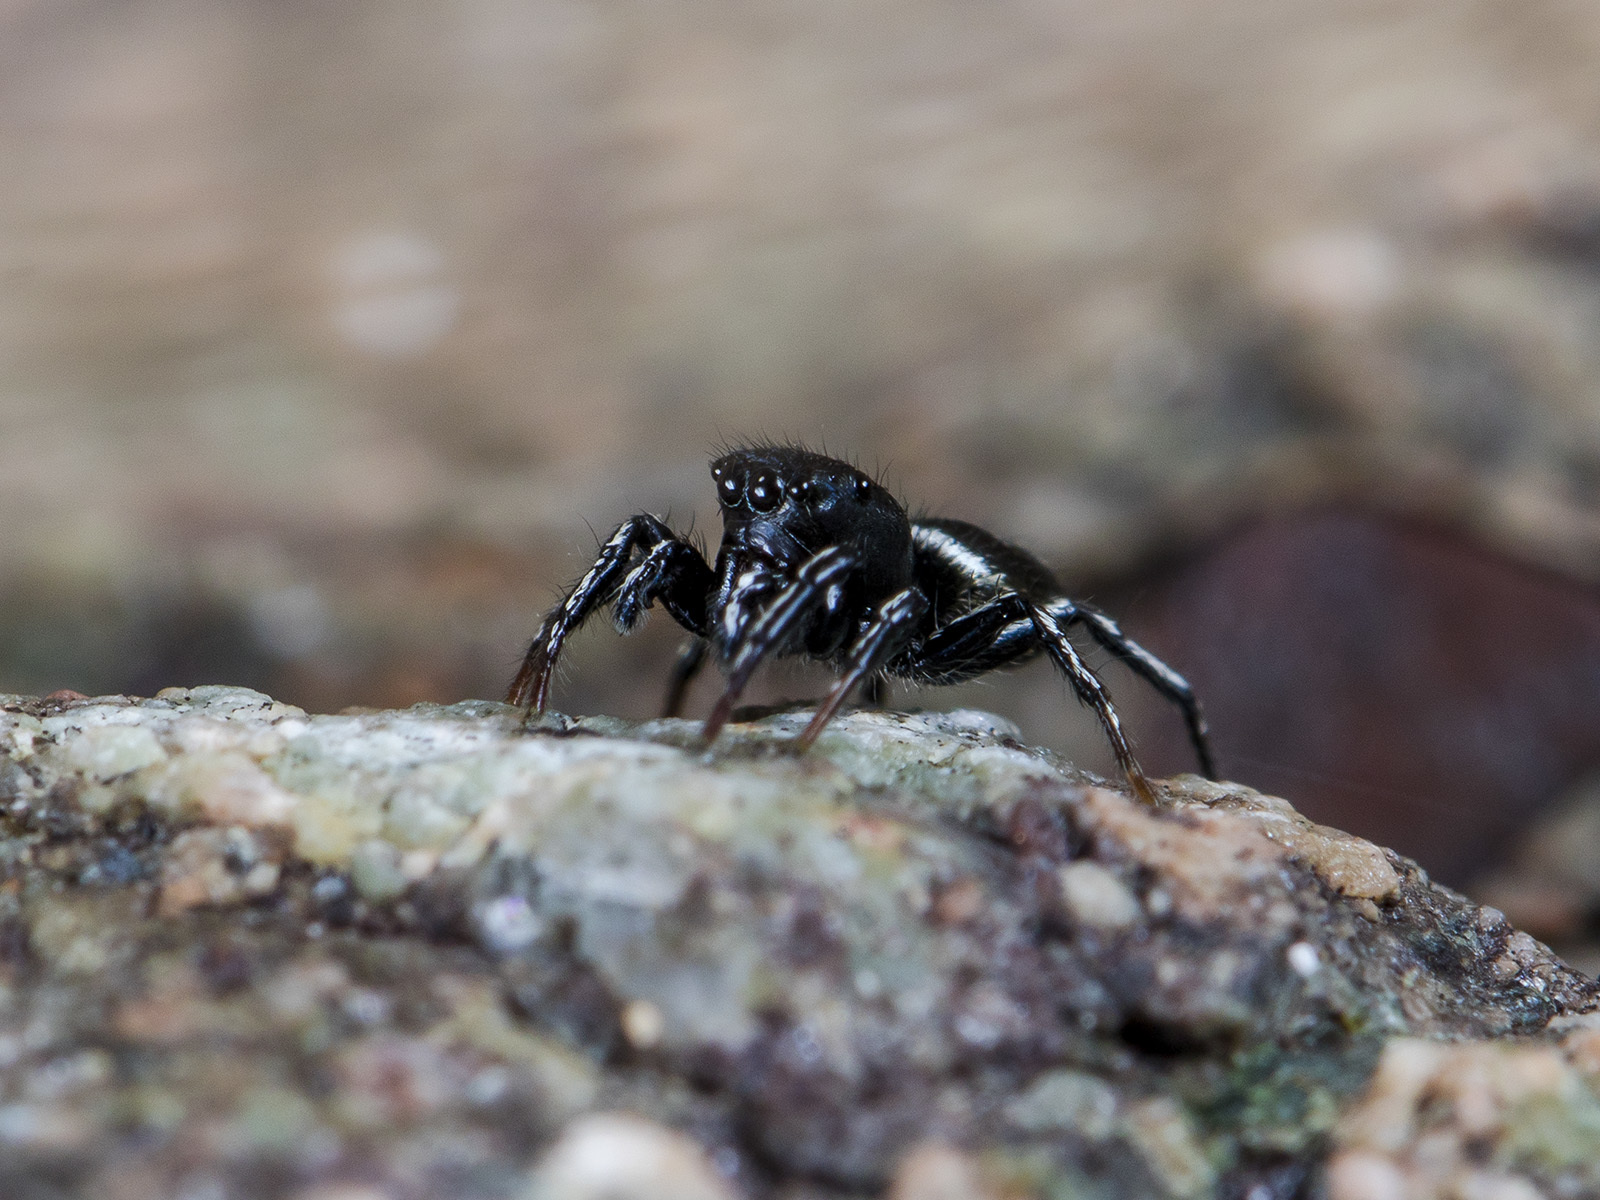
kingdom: Animalia
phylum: Arthropoda
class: Arachnida
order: Araneae
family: Salticidae
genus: Heliophanus
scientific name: Heliophanus curvidens
